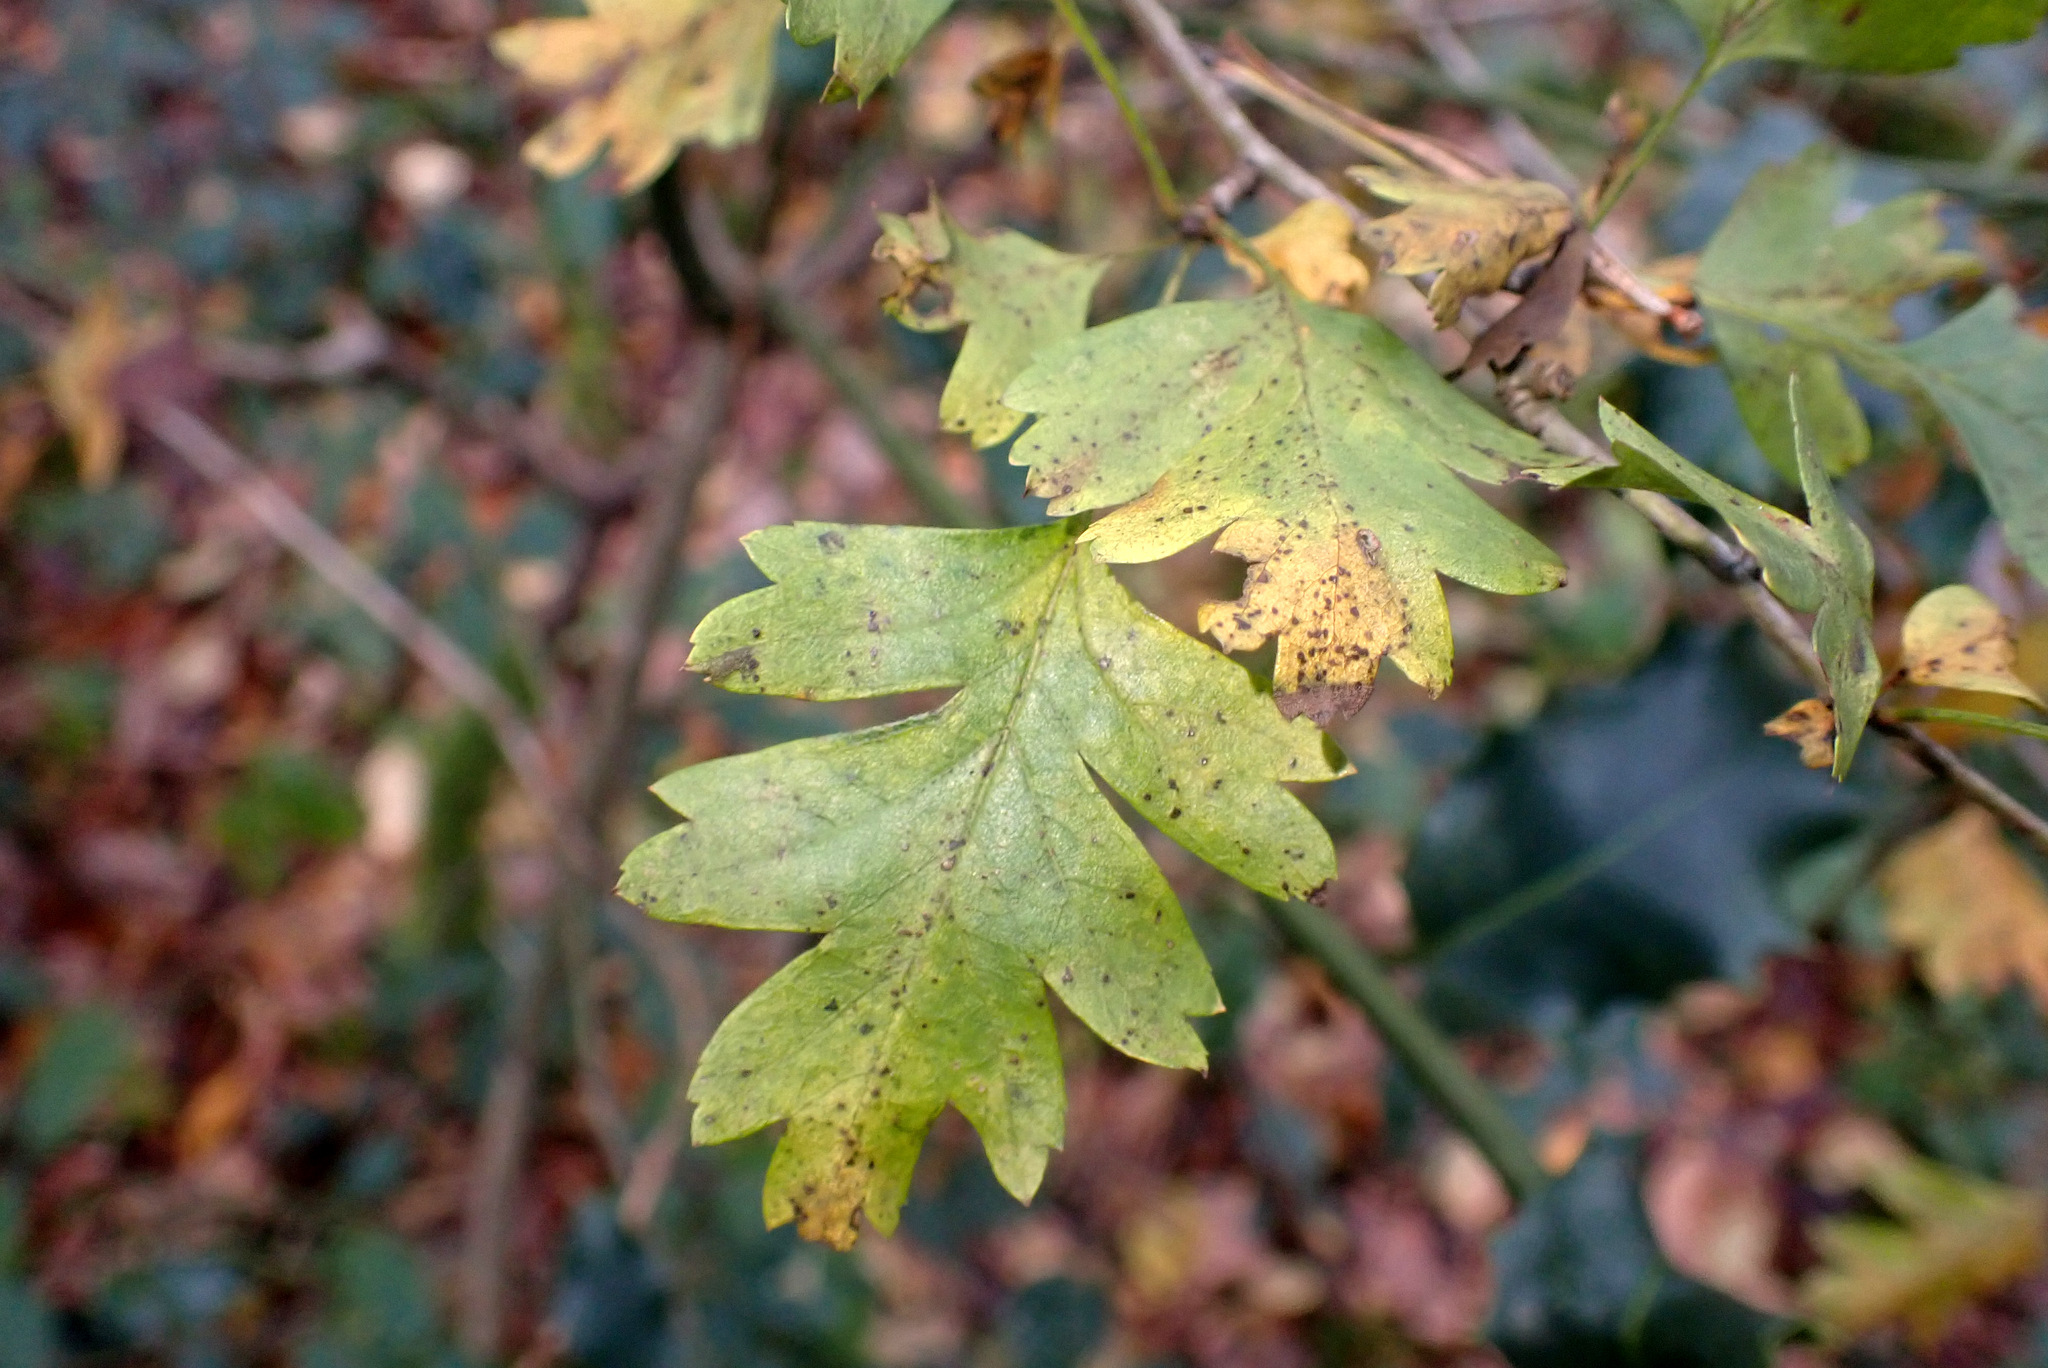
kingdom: Plantae
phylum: Tracheophyta
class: Magnoliopsida
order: Rosales
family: Rosaceae
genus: Crataegus
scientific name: Crataegus monogyna
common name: Hawthorn
